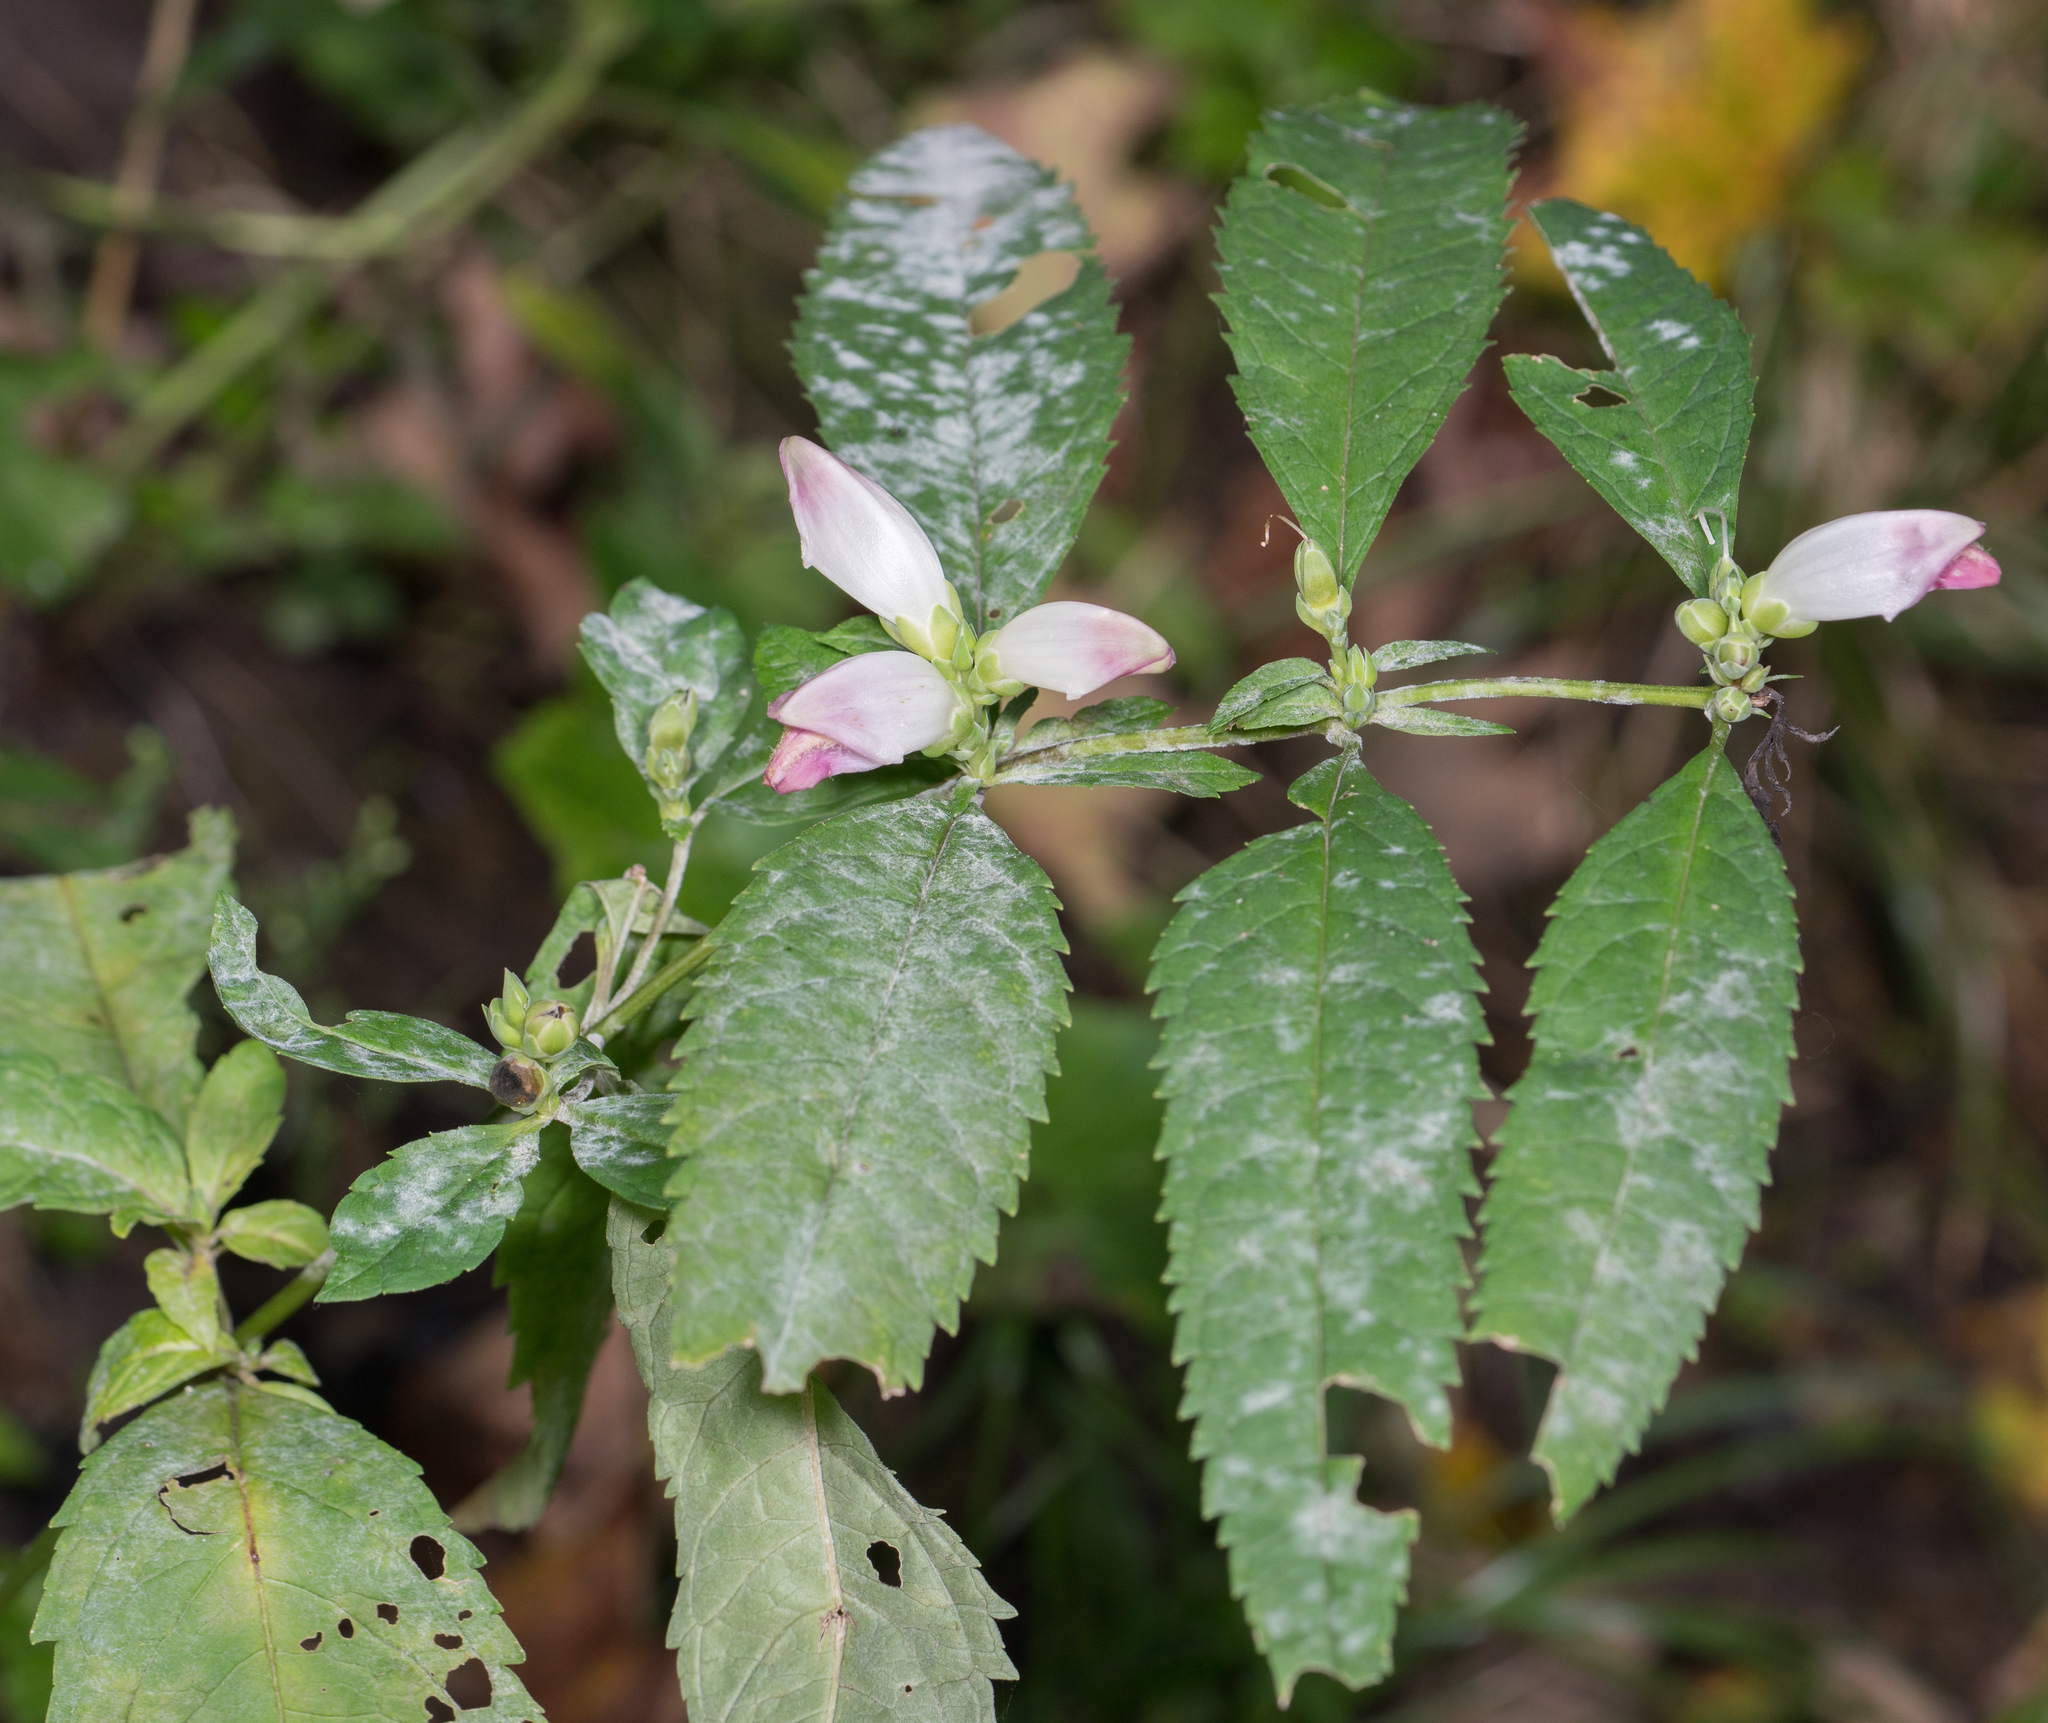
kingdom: Plantae
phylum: Tracheophyta
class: Magnoliopsida
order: Lamiales
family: Plantaginaceae
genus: Chelone
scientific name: Chelone glabra
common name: Snakehead
